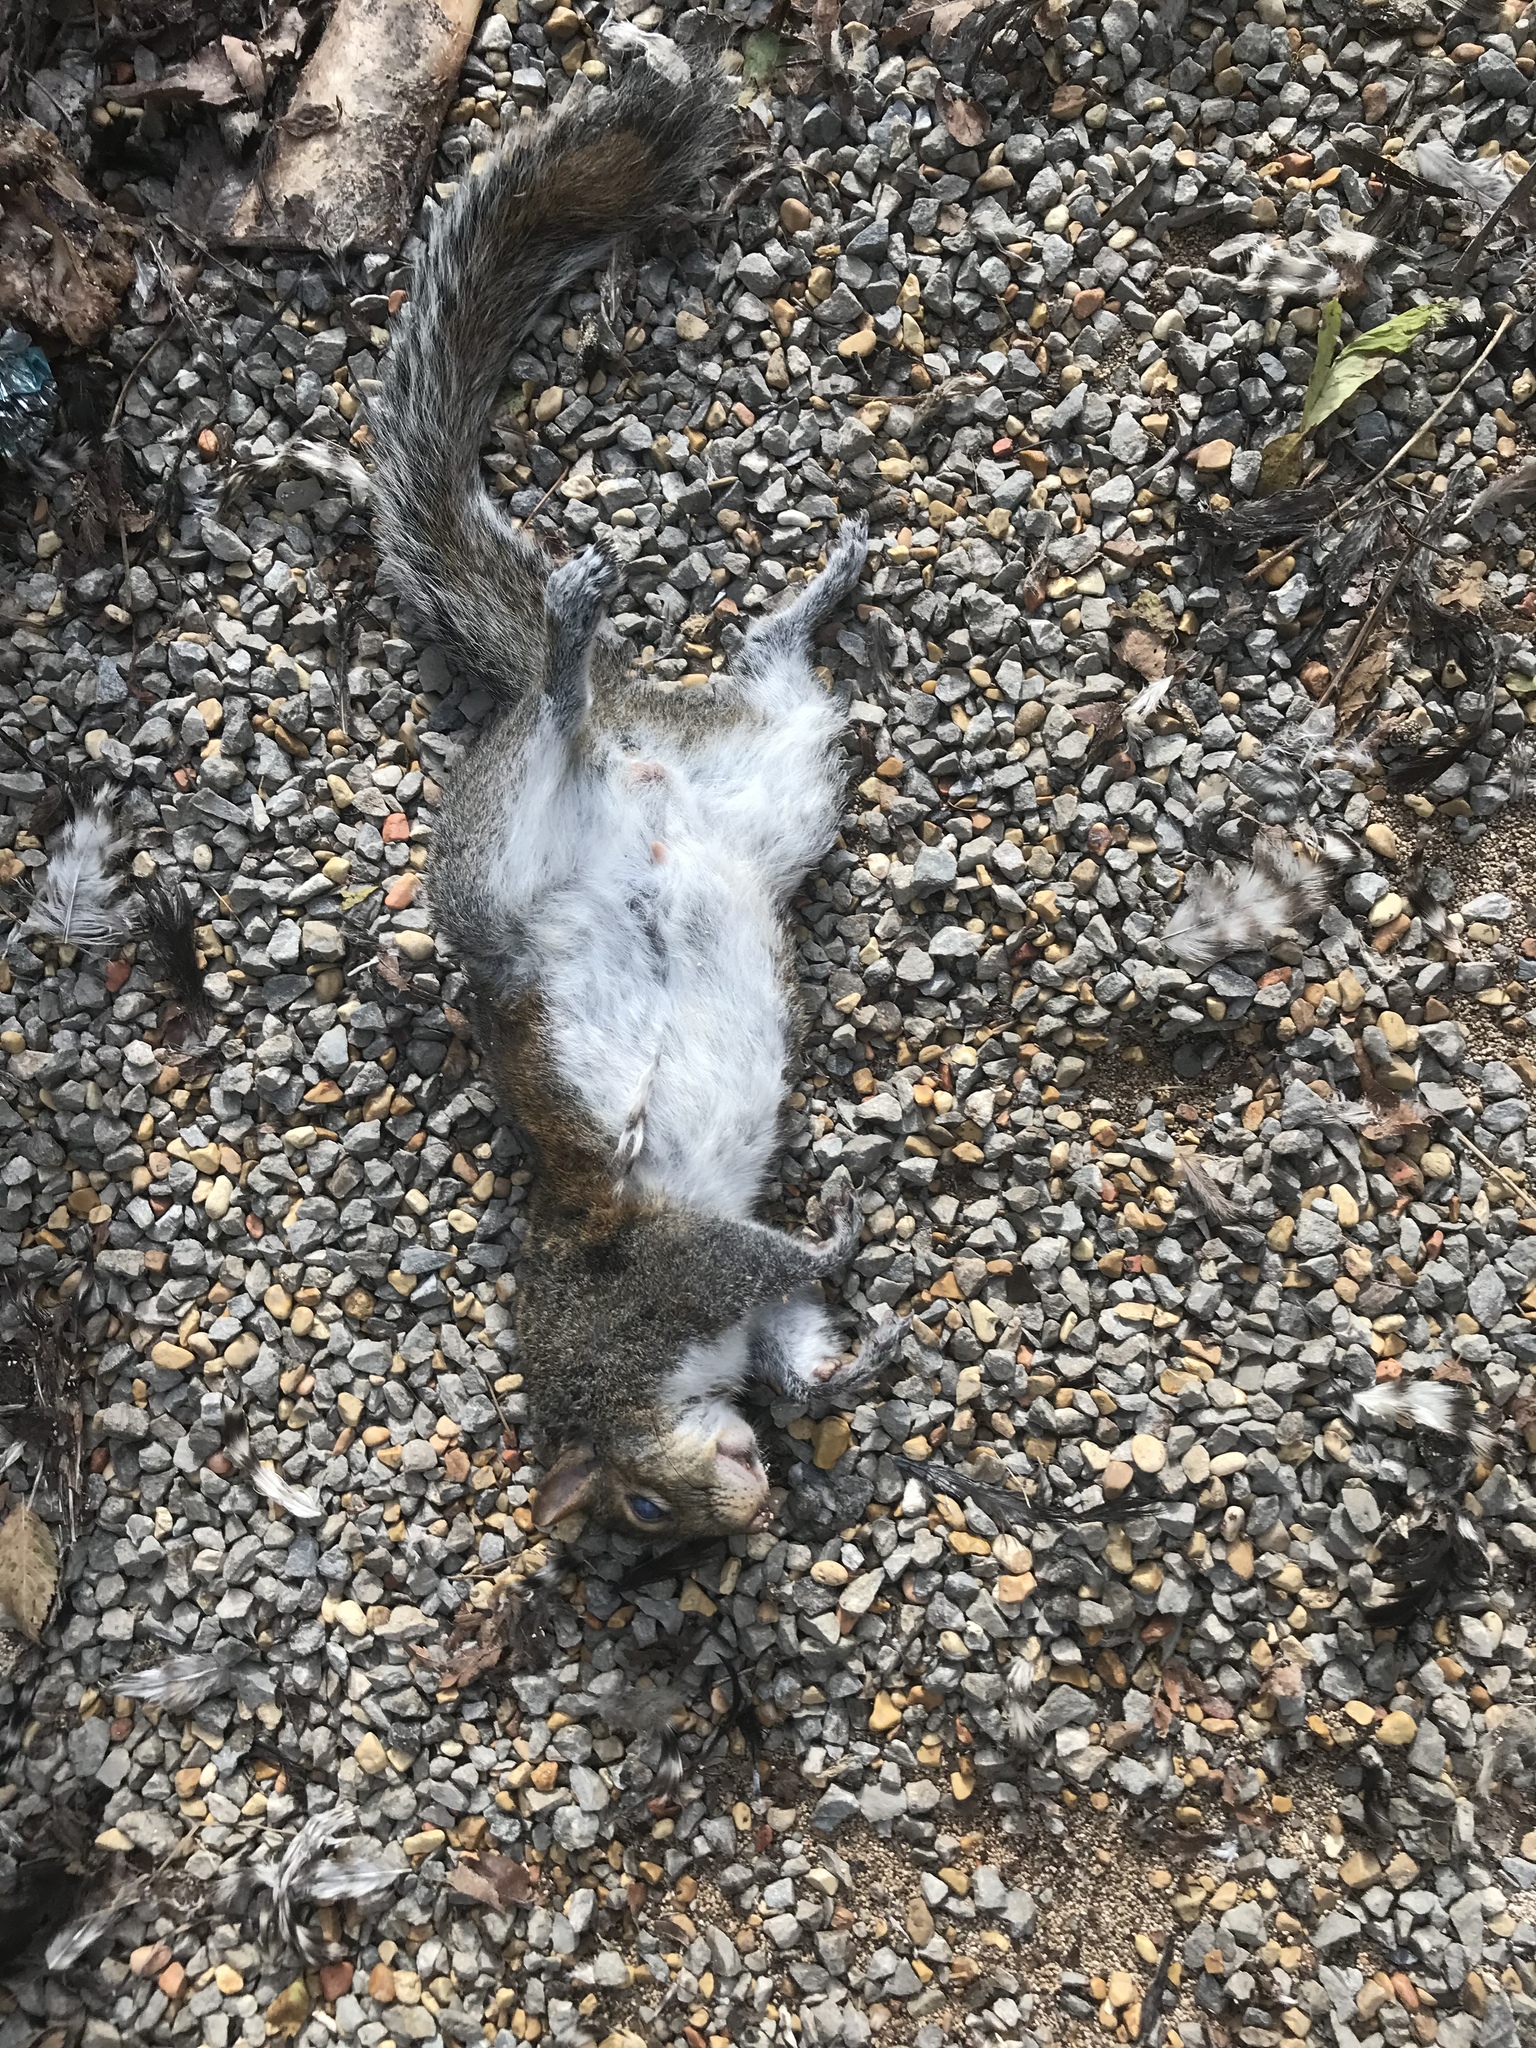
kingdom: Animalia
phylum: Chordata
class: Mammalia
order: Rodentia
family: Sciuridae
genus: Sciurus
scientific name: Sciurus carolinensis
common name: Eastern gray squirrel
